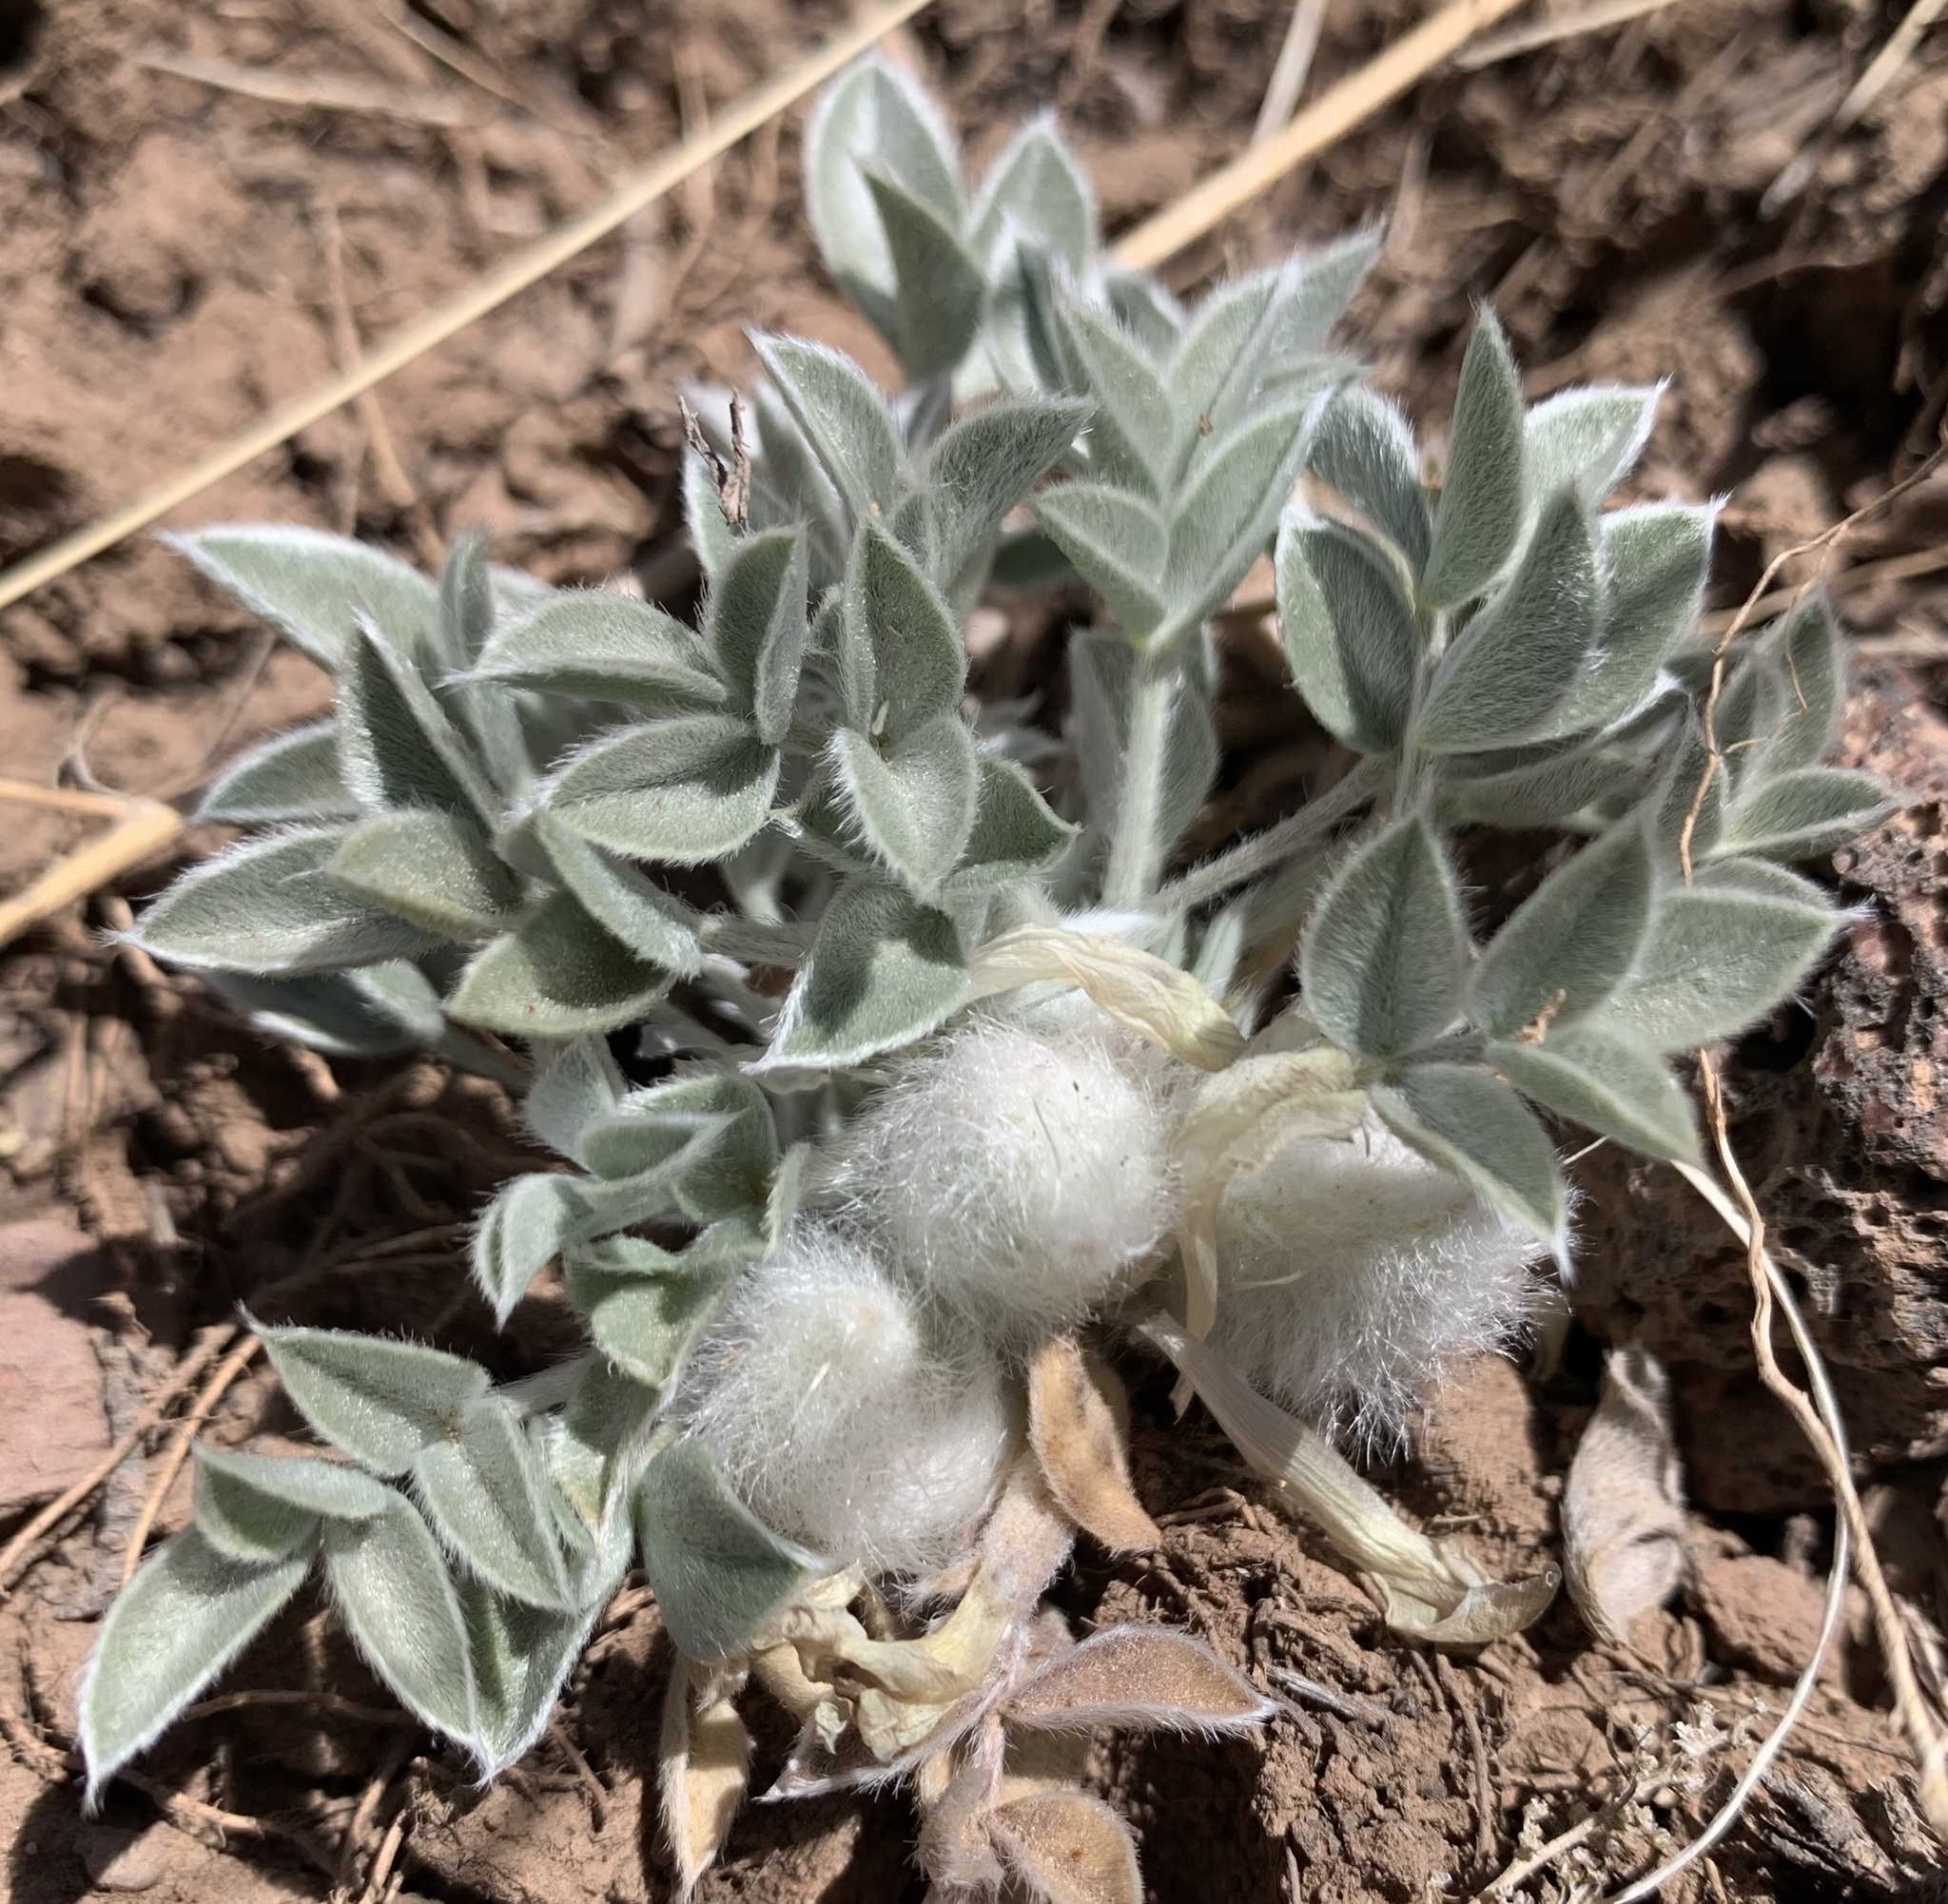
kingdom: Plantae
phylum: Tracheophyta
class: Magnoliopsida
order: Fabales
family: Fabaceae
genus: Astragalus
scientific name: Astragalus newberryi
